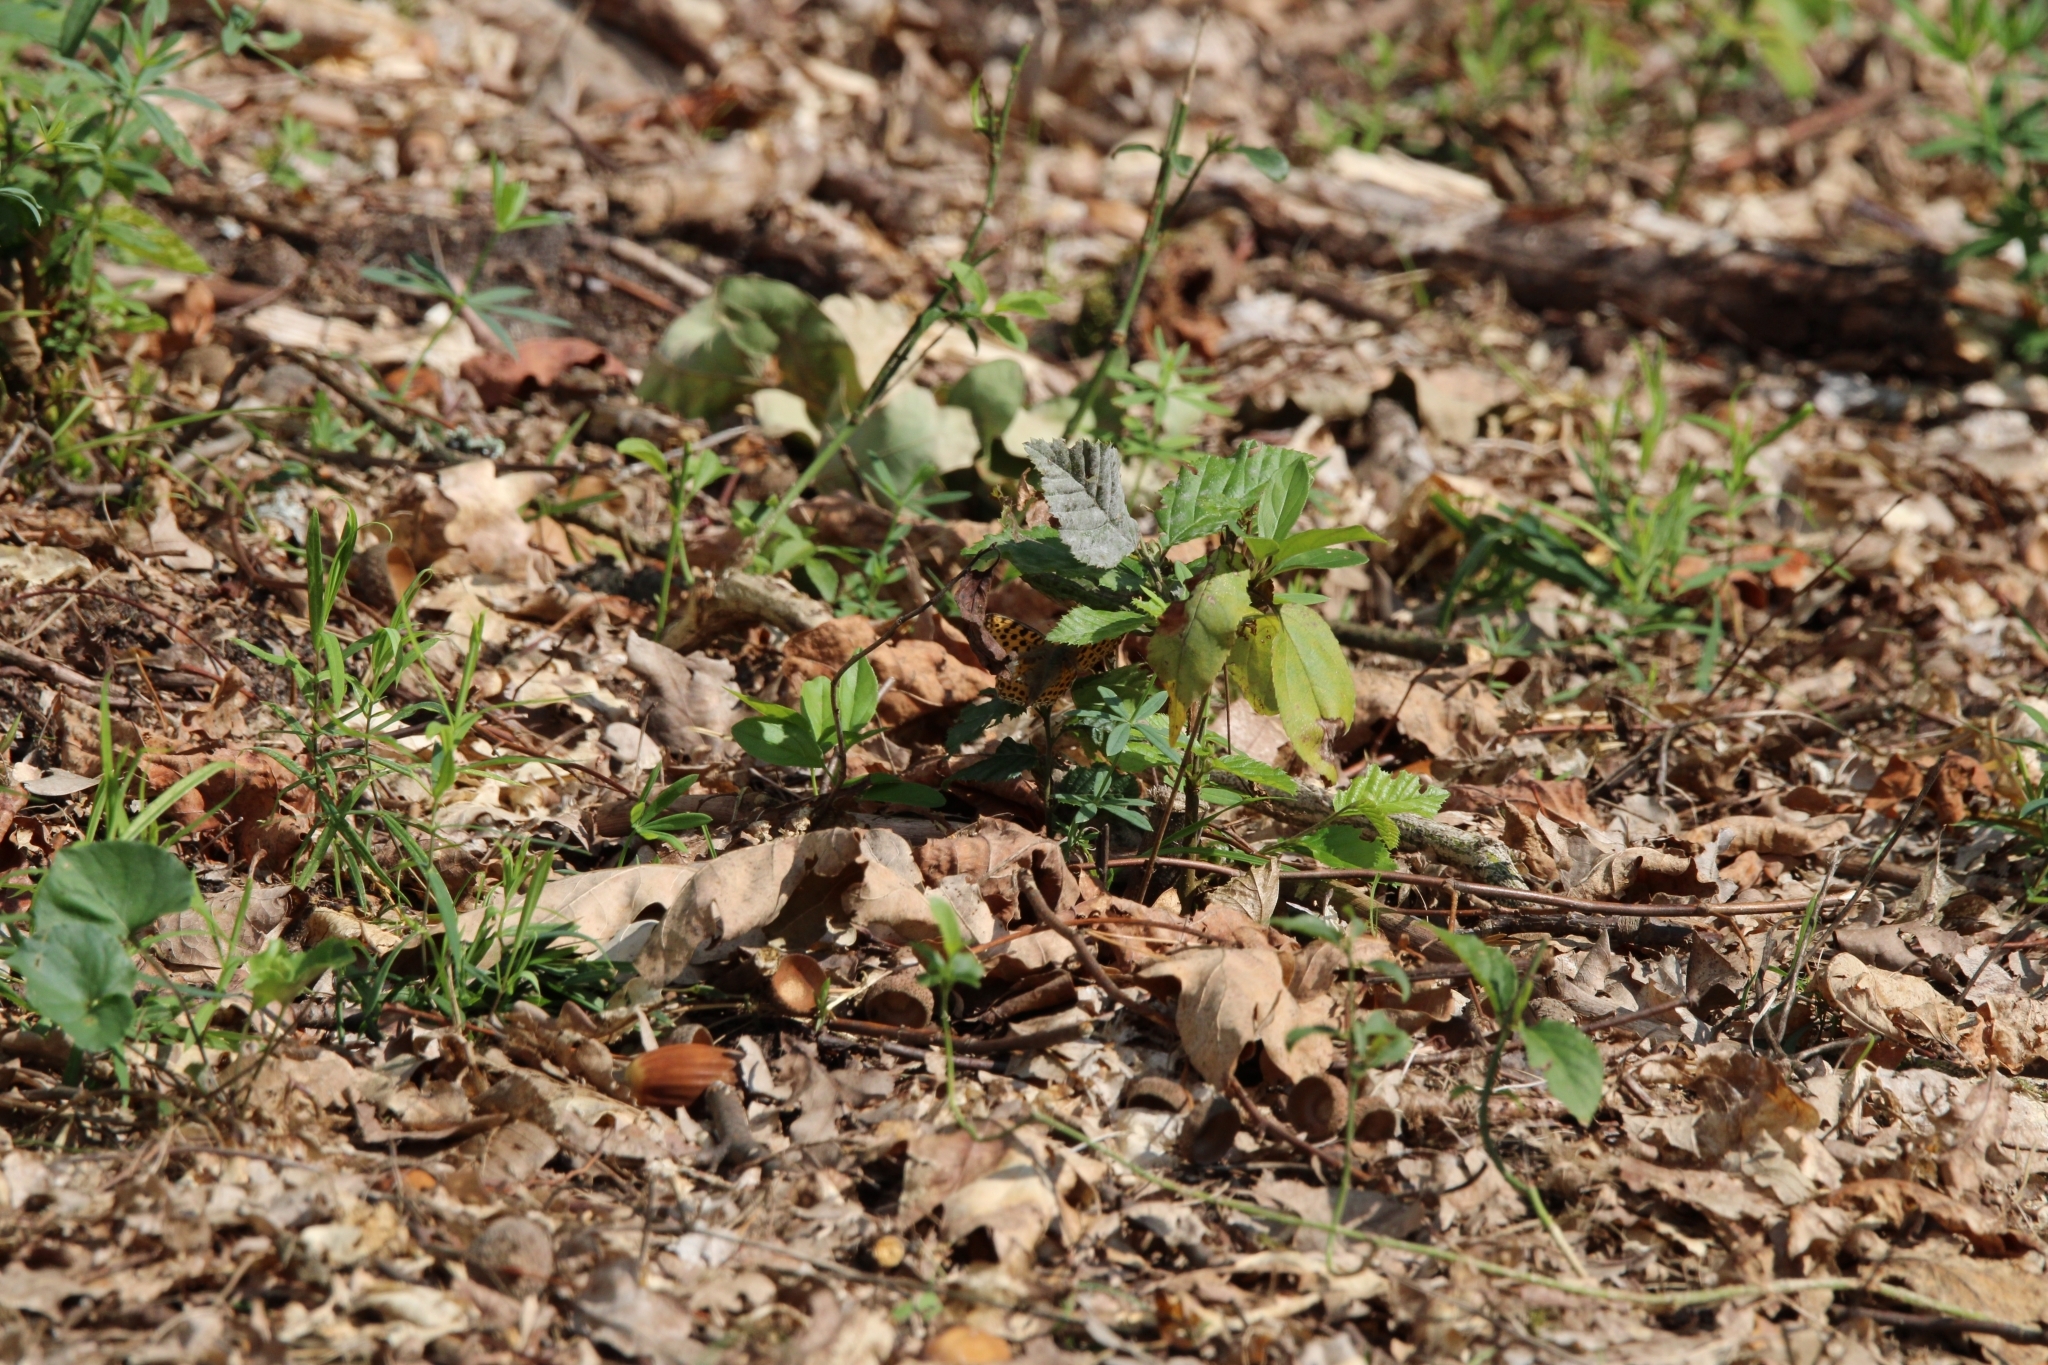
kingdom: Animalia
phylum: Arthropoda
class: Insecta
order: Lepidoptera
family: Nymphalidae
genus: Issoria
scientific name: Issoria lathonia
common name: Queen of spain fritillary
